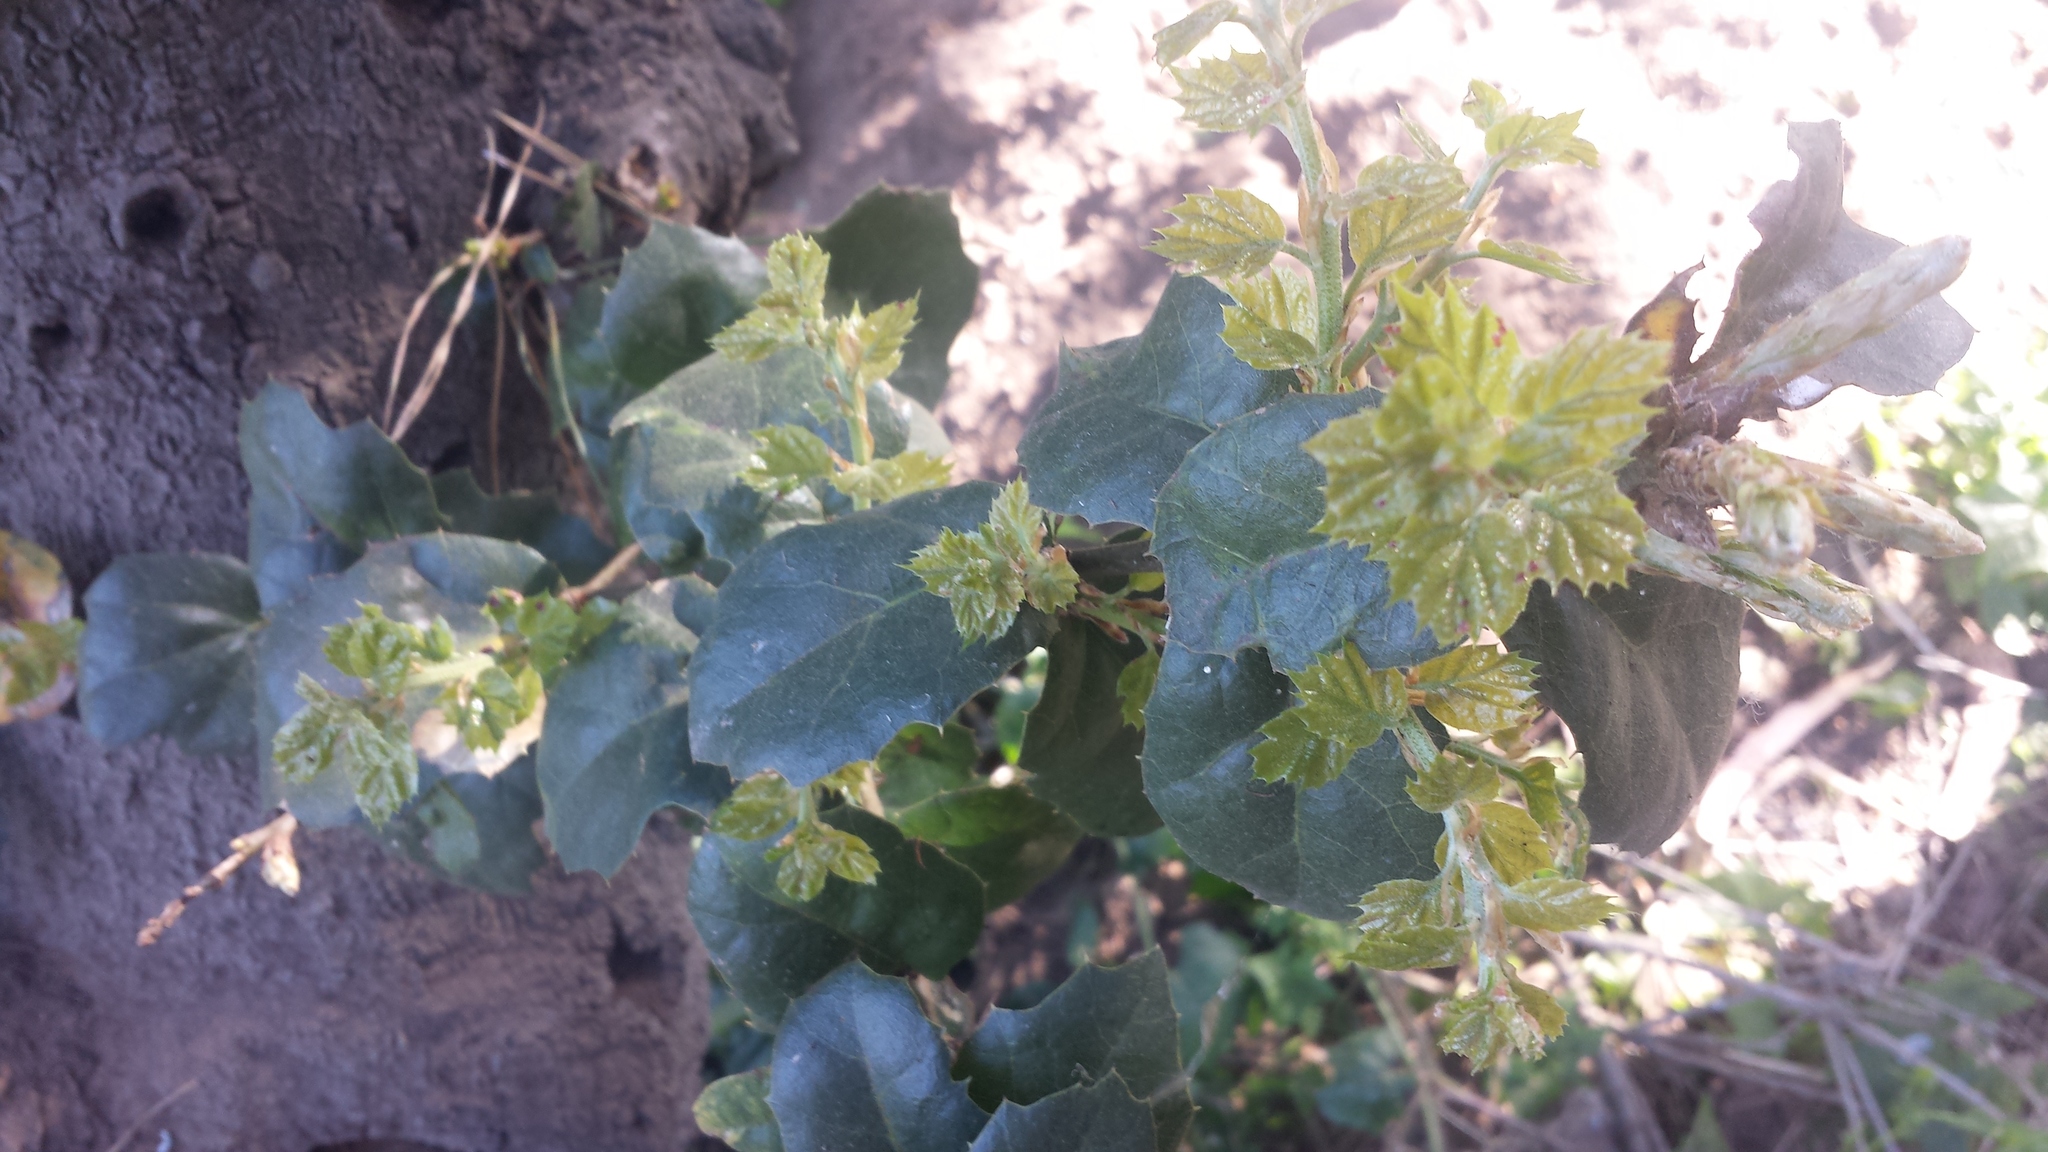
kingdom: Plantae
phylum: Tracheophyta
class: Magnoliopsida
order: Fagales
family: Fagaceae
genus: Quercus
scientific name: Quercus agrifolia
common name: California live oak
